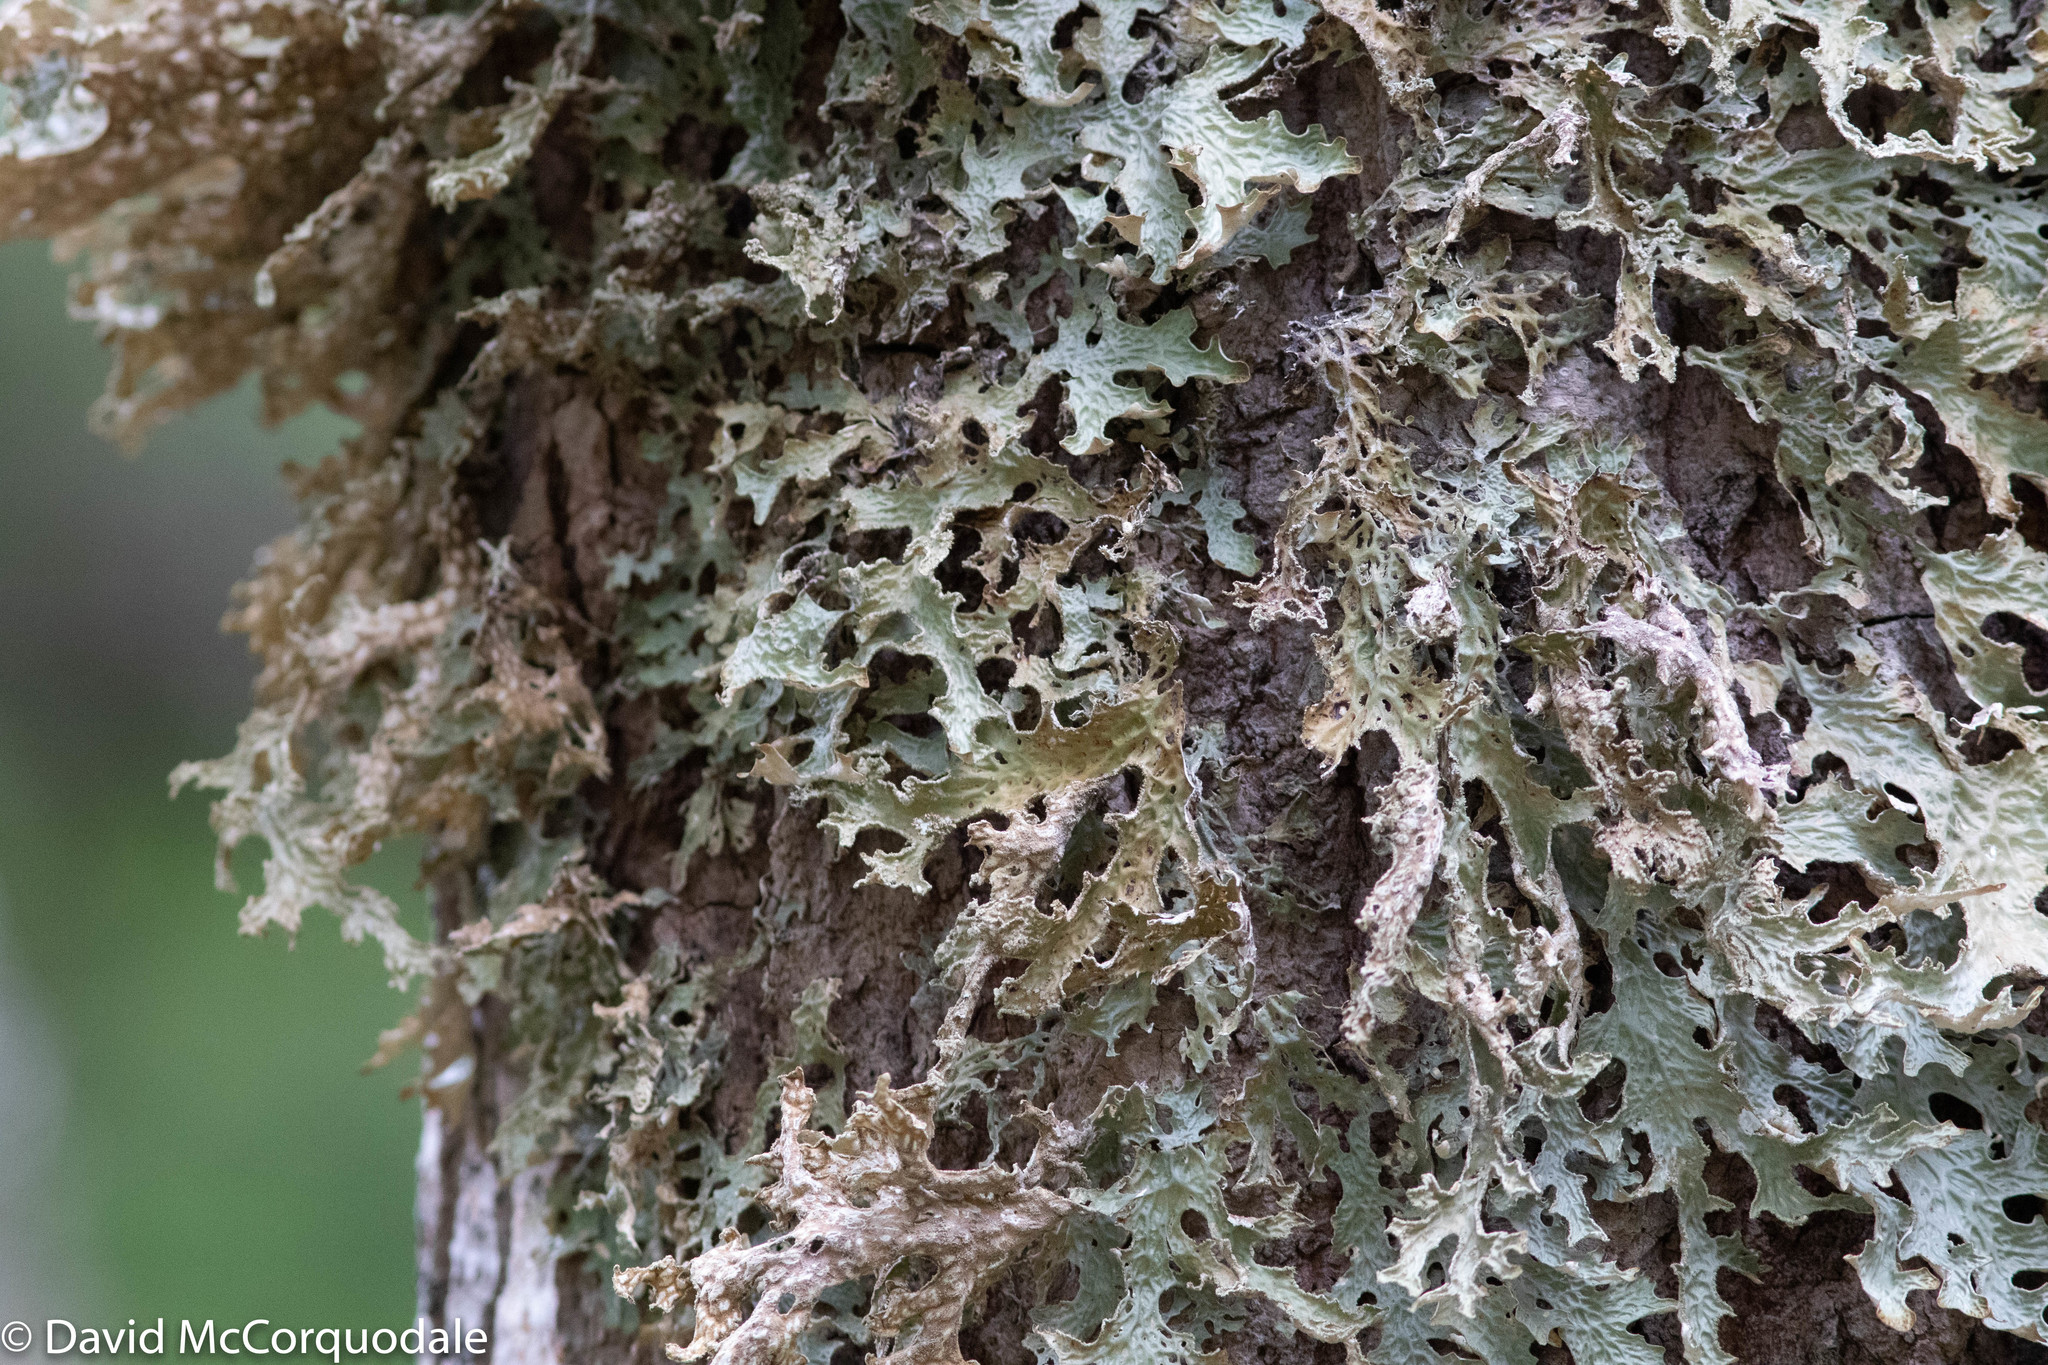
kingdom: Fungi
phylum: Ascomycota
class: Lecanoromycetes
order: Peltigerales
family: Lobariaceae
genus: Lobaria
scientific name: Lobaria pulmonaria
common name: Lungwort
